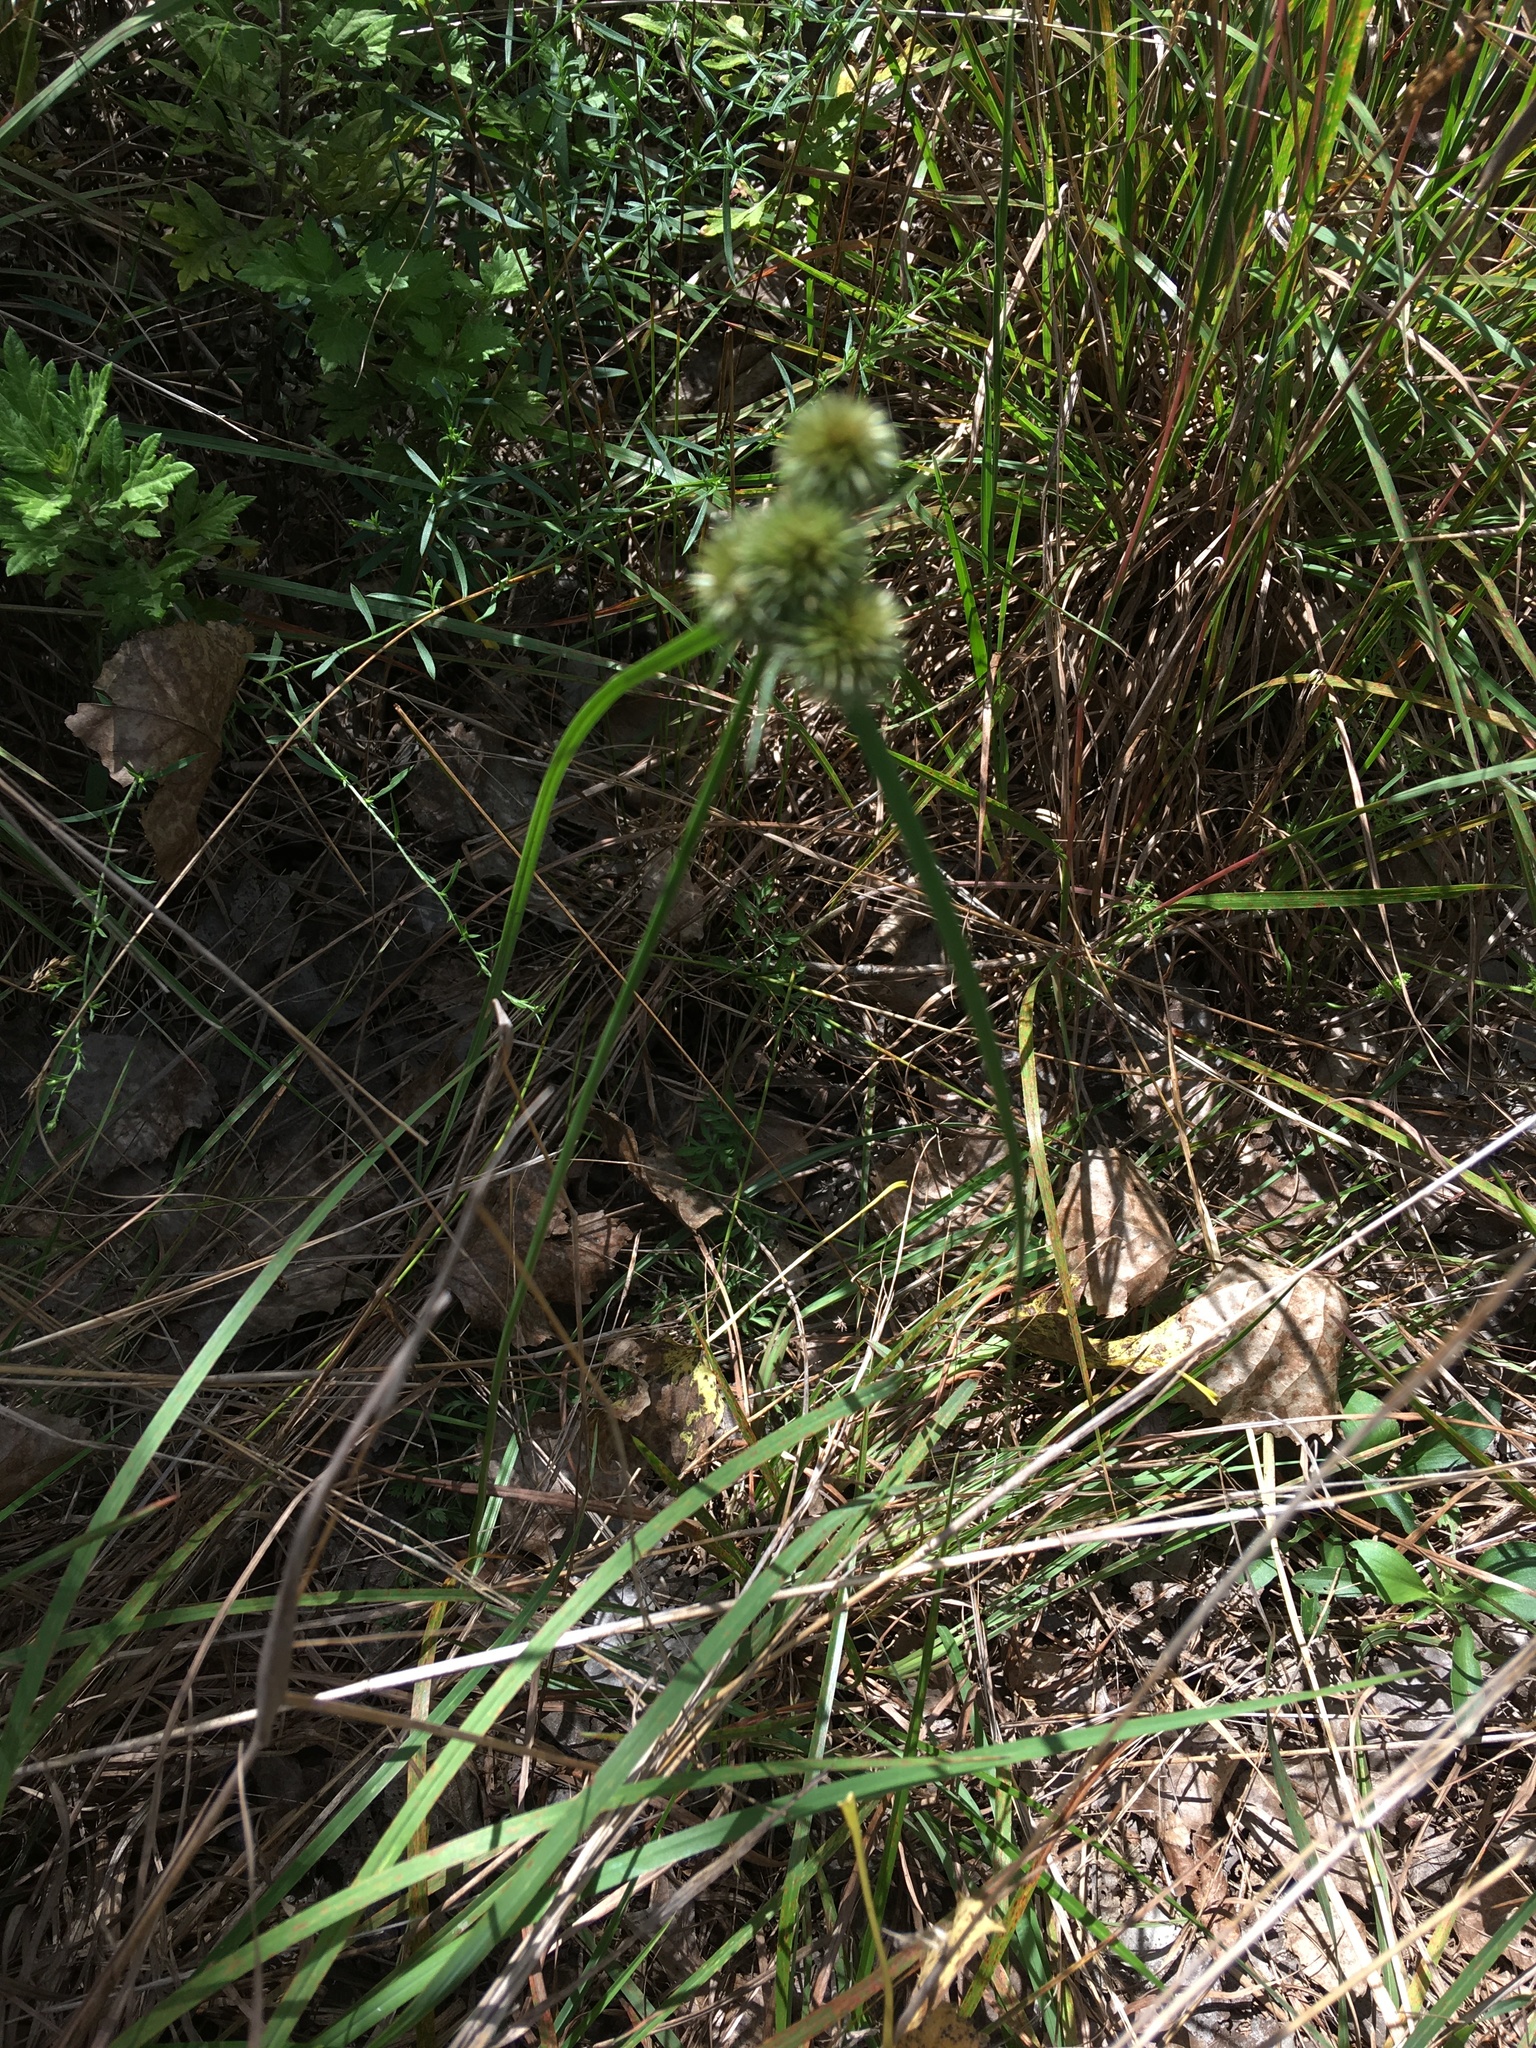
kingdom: Plantae
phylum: Tracheophyta
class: Liliopsida
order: Poales
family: Cyperaceae
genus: Cyperus
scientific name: Cyperus echinatus
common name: Teasel sedge
